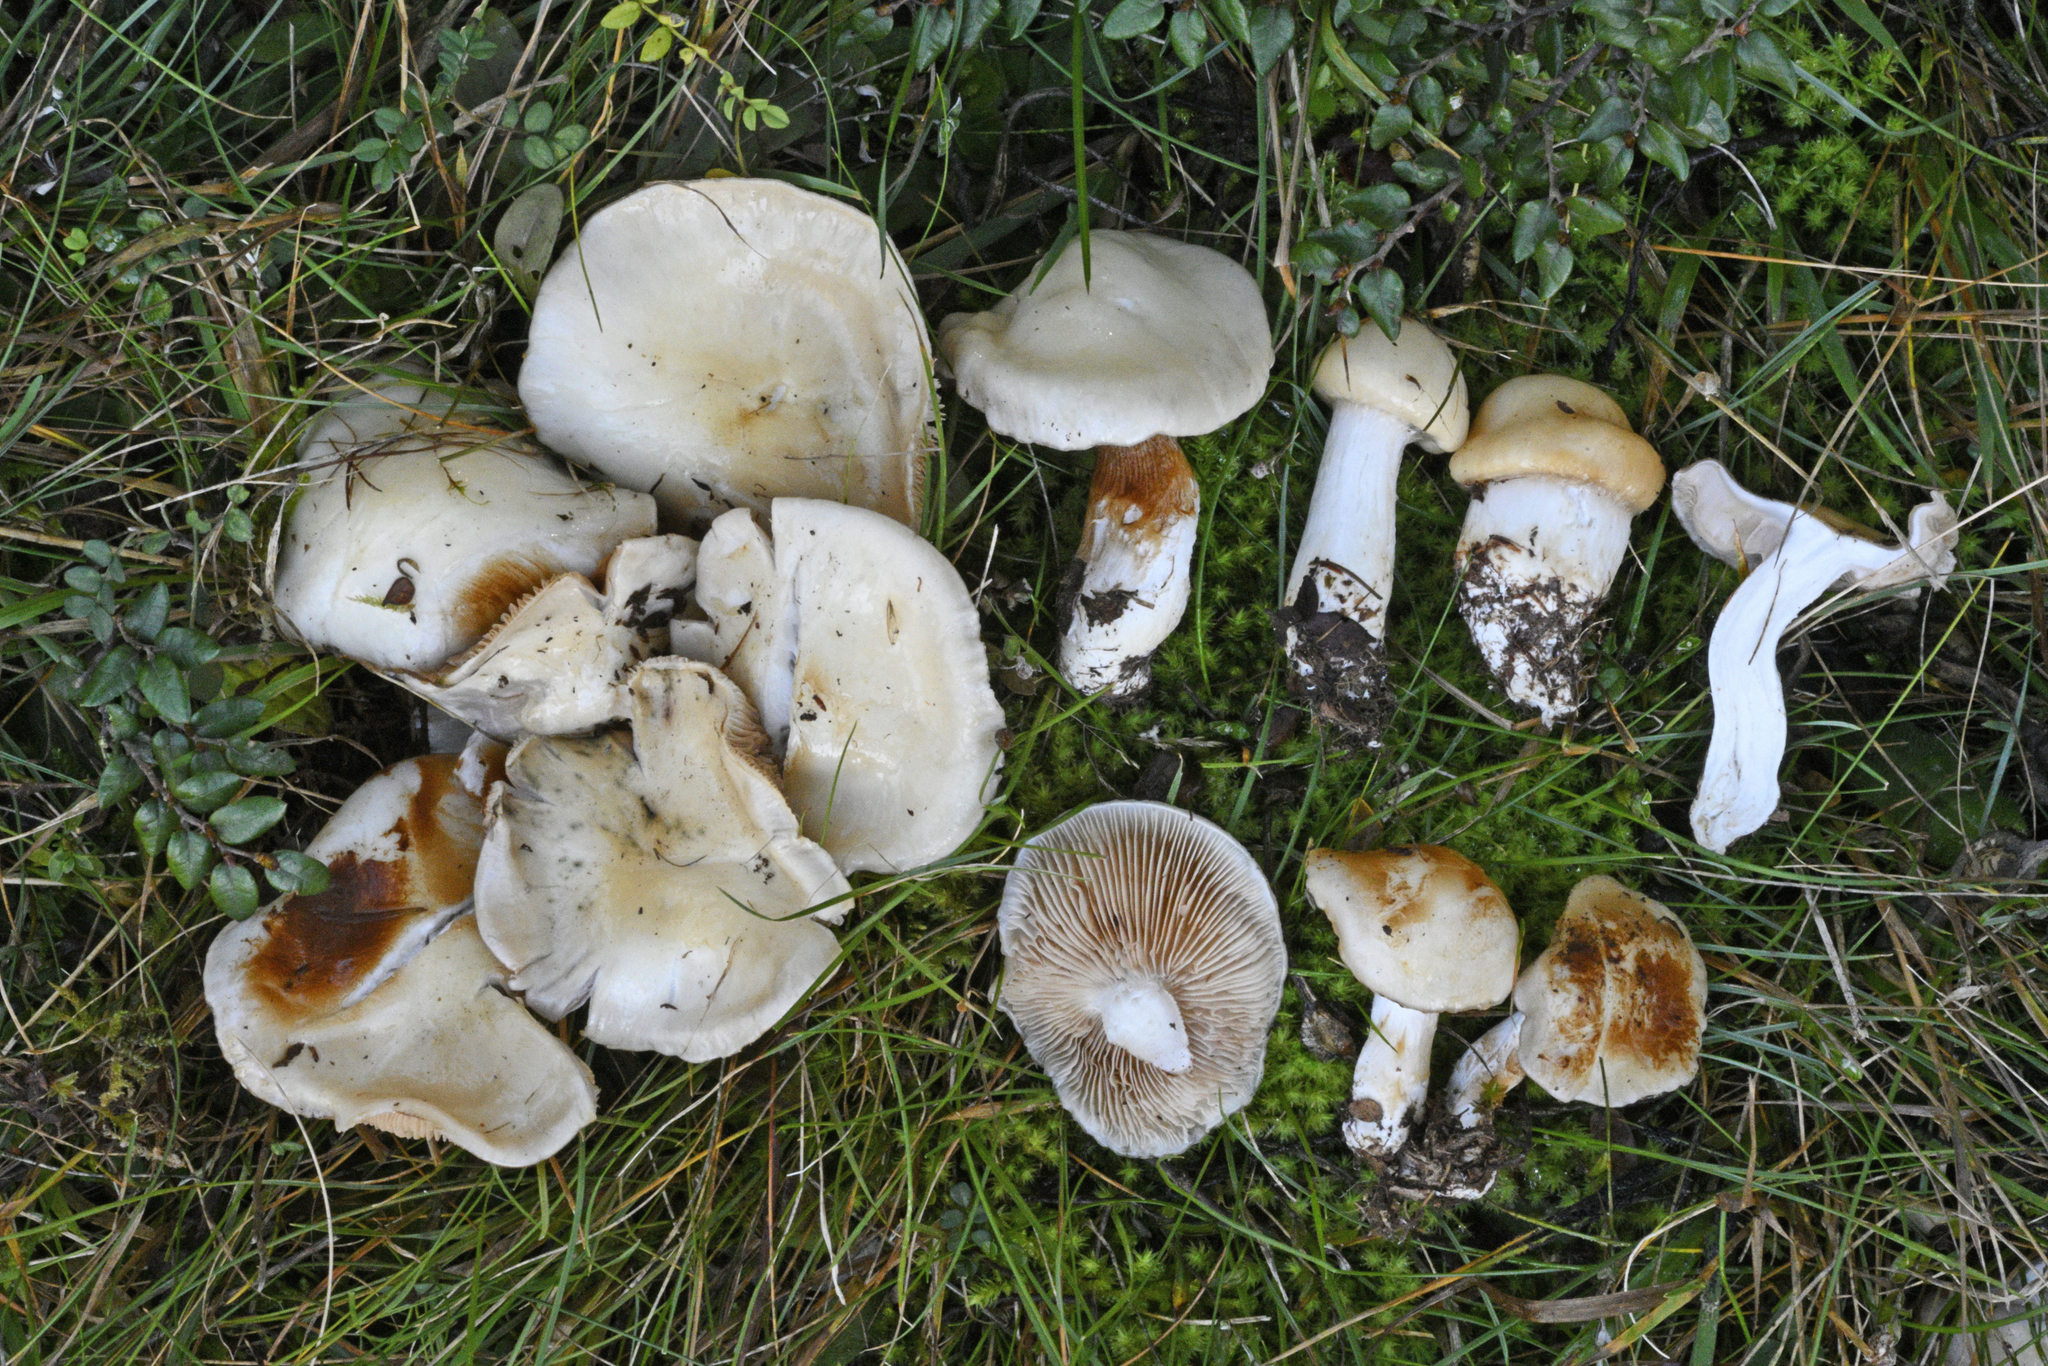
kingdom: Fungi
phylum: Basidiomycota
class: Agaricomycetes
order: Agaricales
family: Cortinariaceae
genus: Thaxterogaster
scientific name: Thaxterogaster olorinatus
